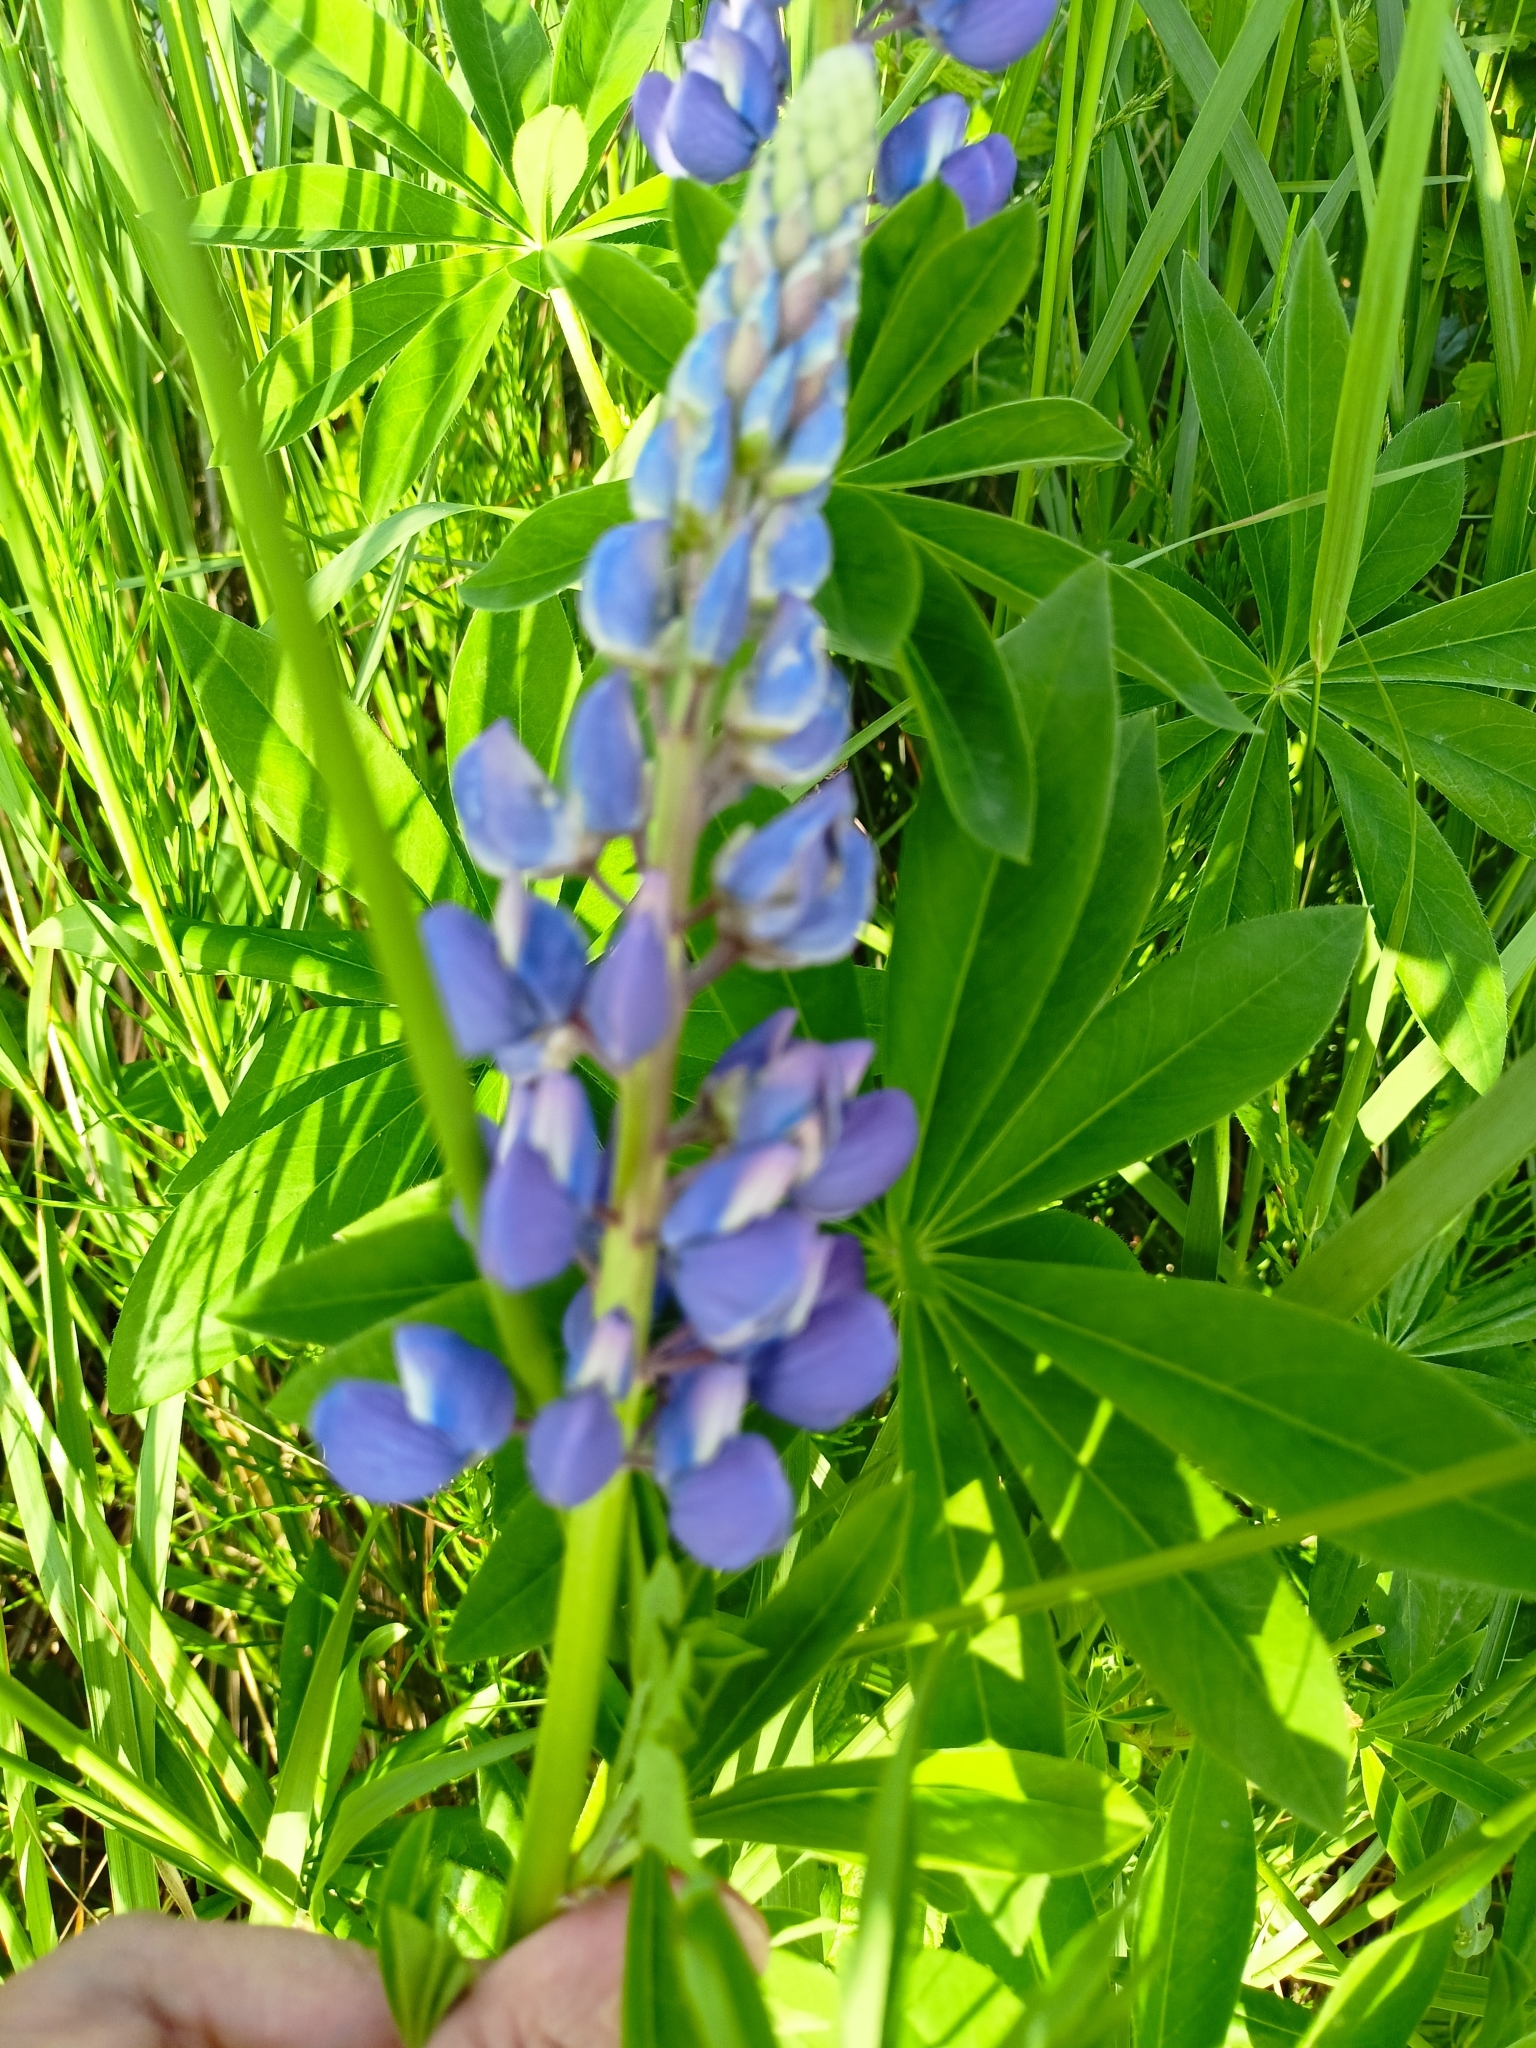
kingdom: Plantae
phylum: Tracheophyta
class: Magnoliopsida
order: Fabales
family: Fabaceae
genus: Lupinus
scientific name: Lupinus polyphyllus
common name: Garden lupin
